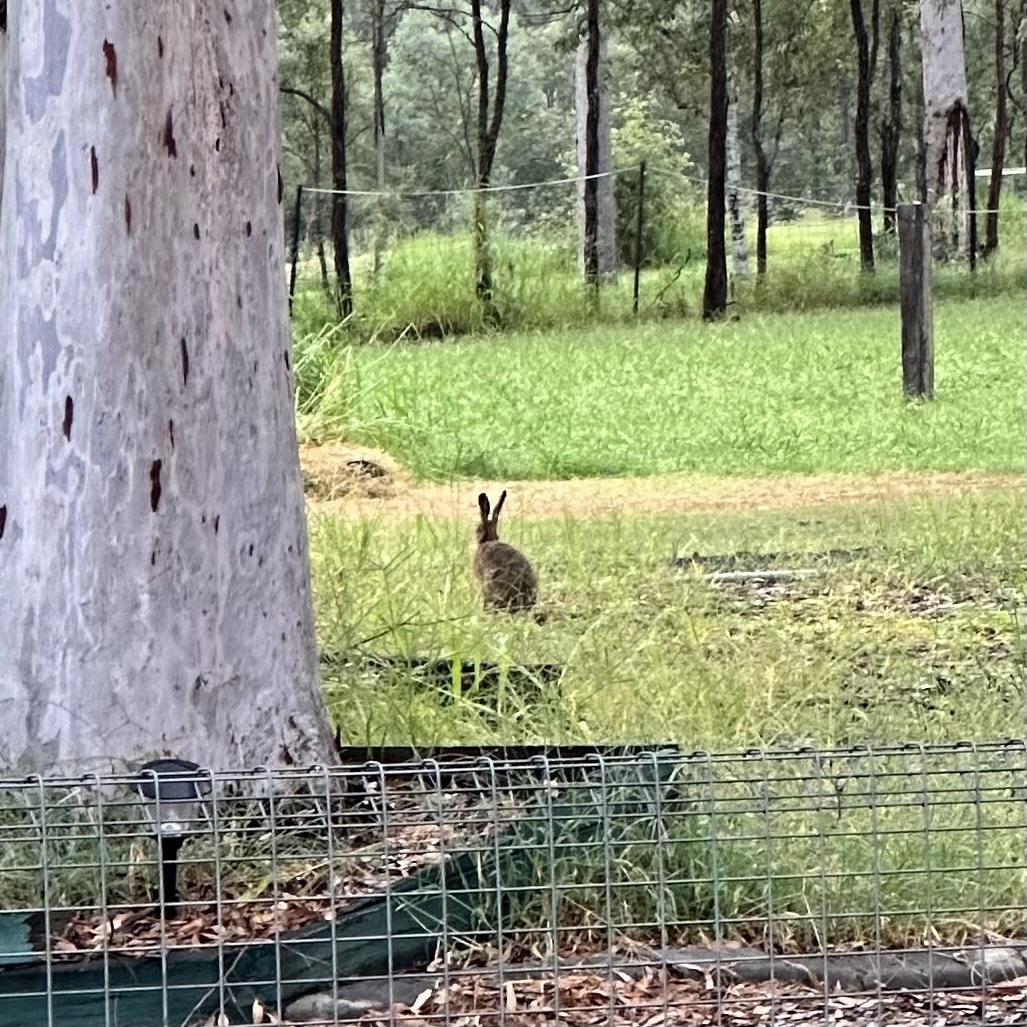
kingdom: Animalia
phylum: Chordata
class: Mammalia
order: Lagomorpha
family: Leporidae
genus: Lepus
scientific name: Lepus europaeus
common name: European hare
